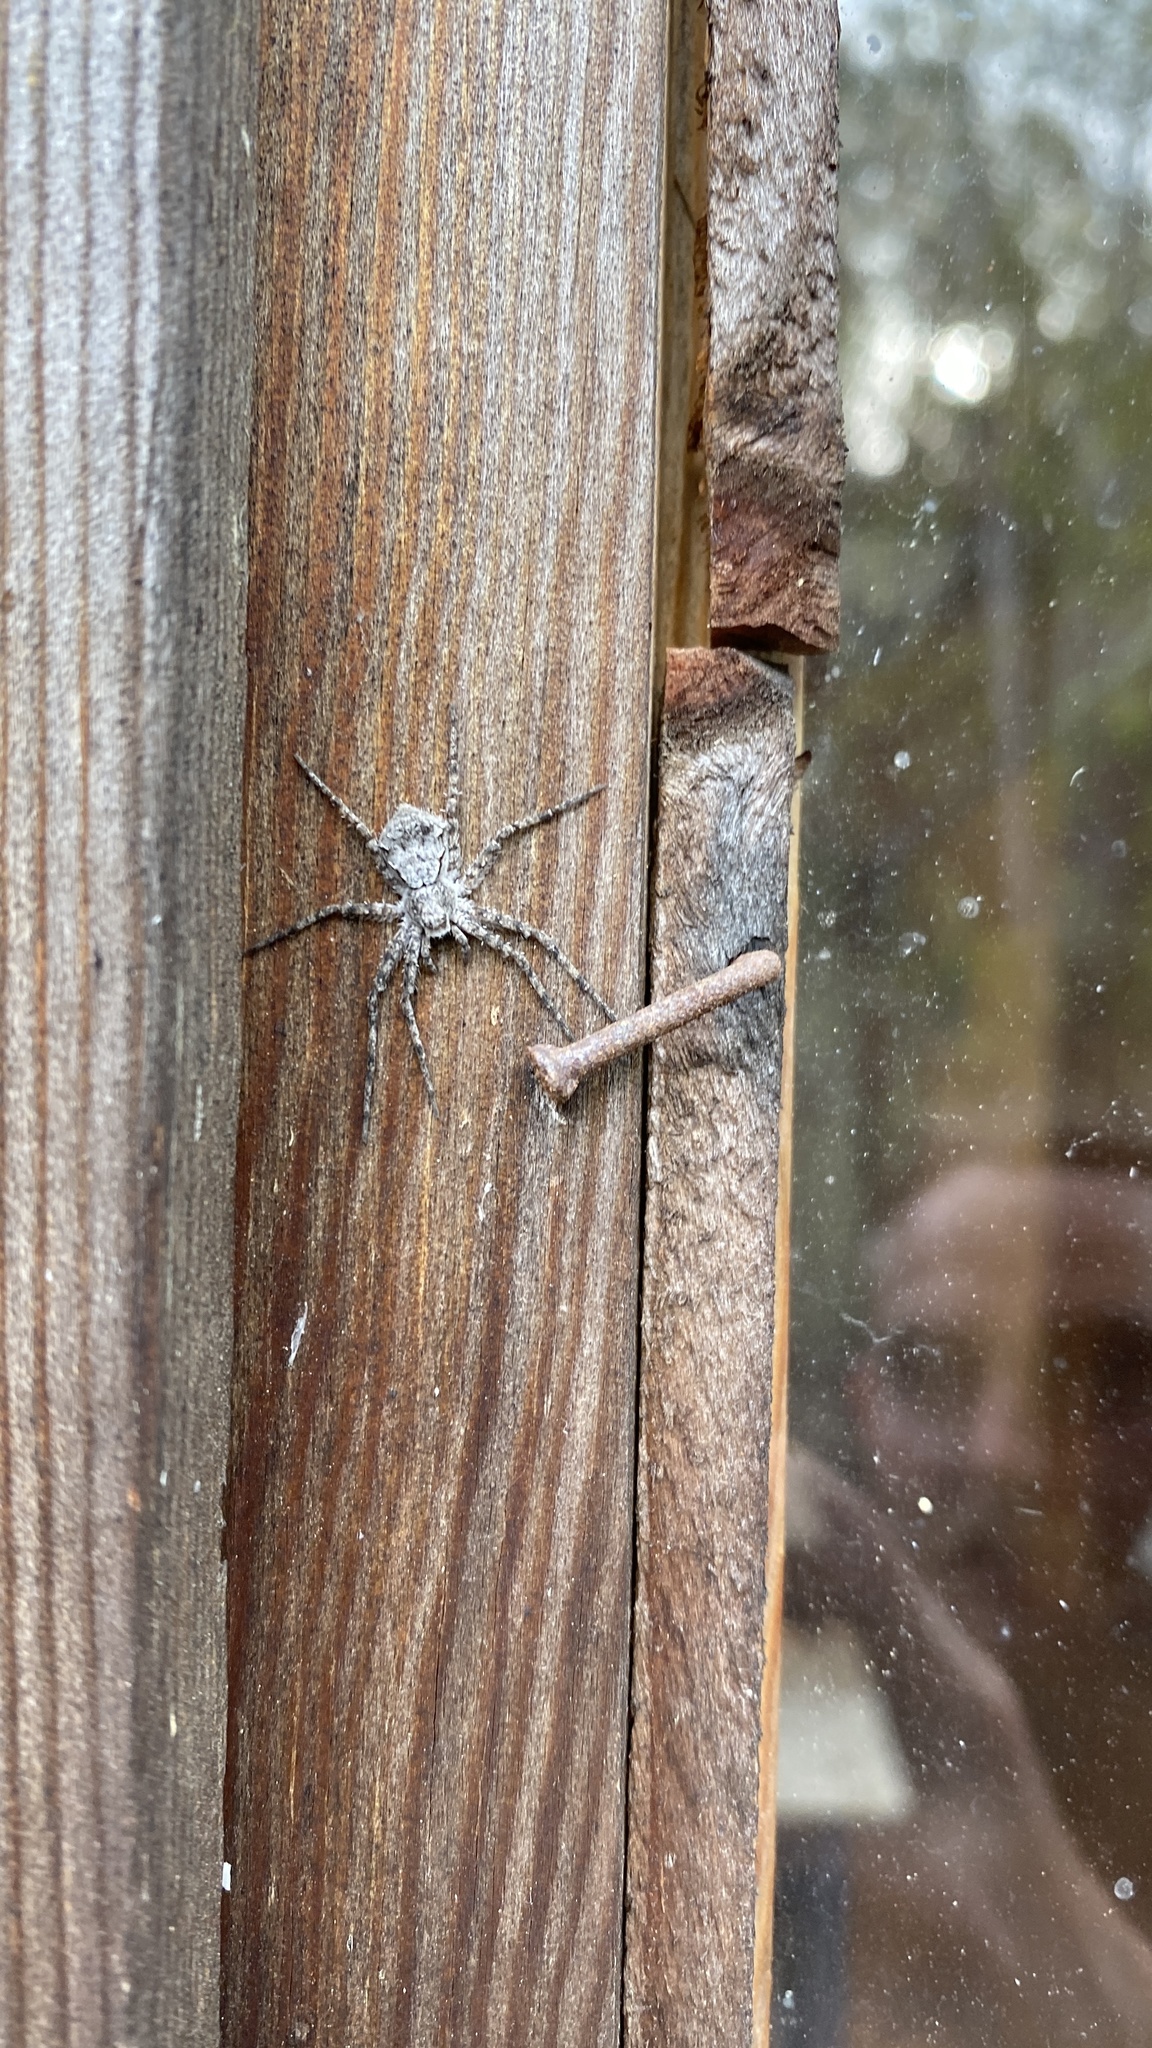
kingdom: Animalia
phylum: Arthropoda
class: Arachnida
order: Araneae
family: Philodromidae
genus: Philodromus
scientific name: Philodromus margaritatus
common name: Lichen running-spider
